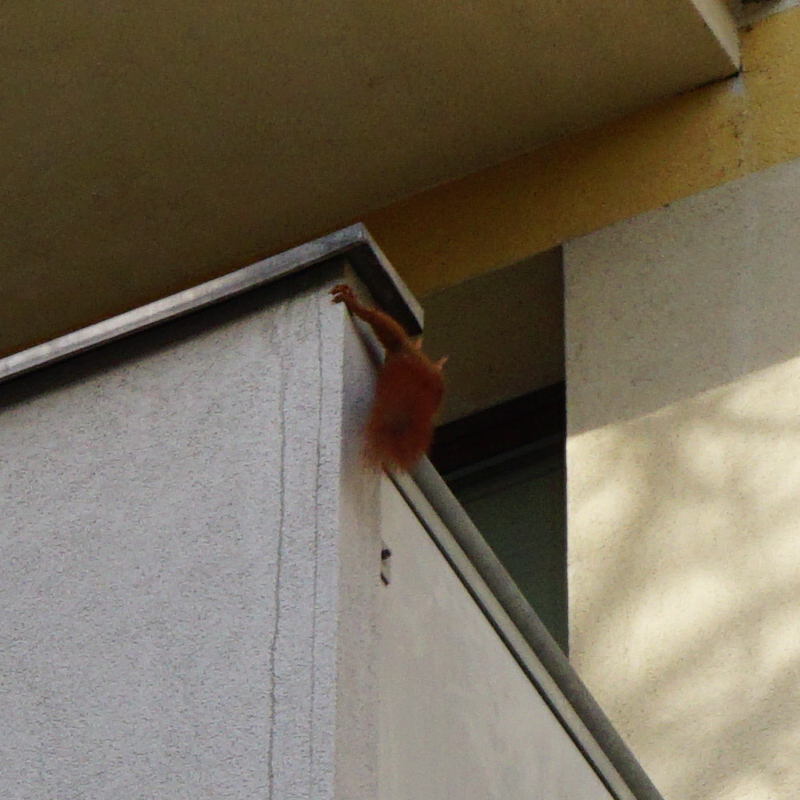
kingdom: Animalia
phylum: Chordata
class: Mammalia
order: Rodentia
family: Sciuridae
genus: Sciurus
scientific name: Sciurus vulgaris
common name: Eurasian red squirrel
